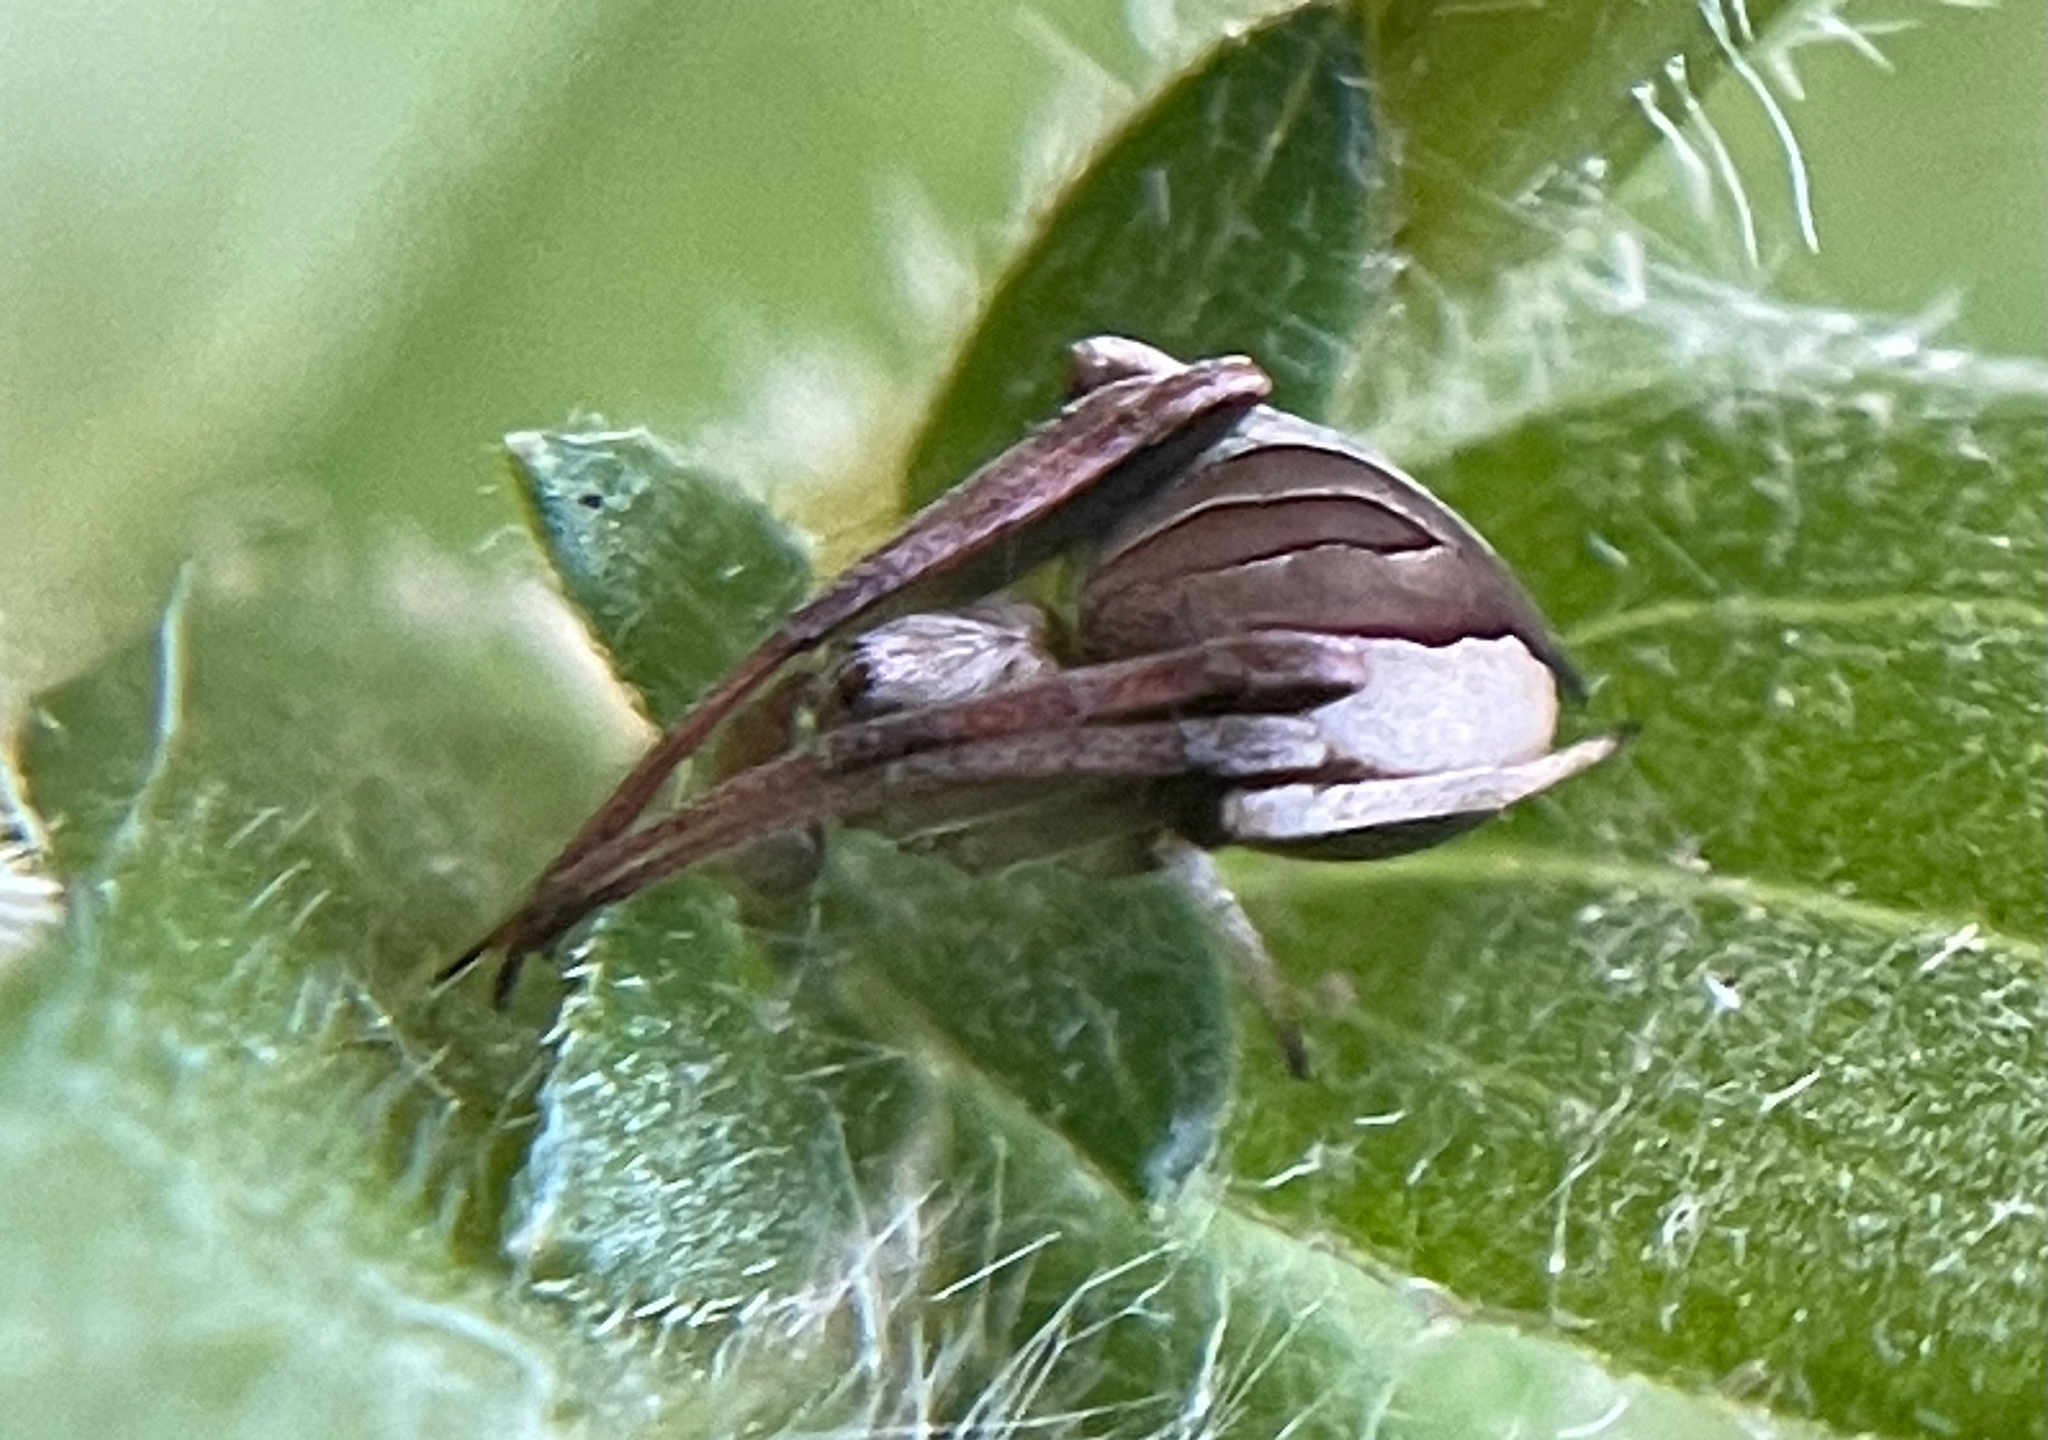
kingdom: Animalia
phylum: Arthropoda
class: Arachnida
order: Araneae
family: Araneidae
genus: Acacesia
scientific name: Acacesia hamata
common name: Orb weavers
